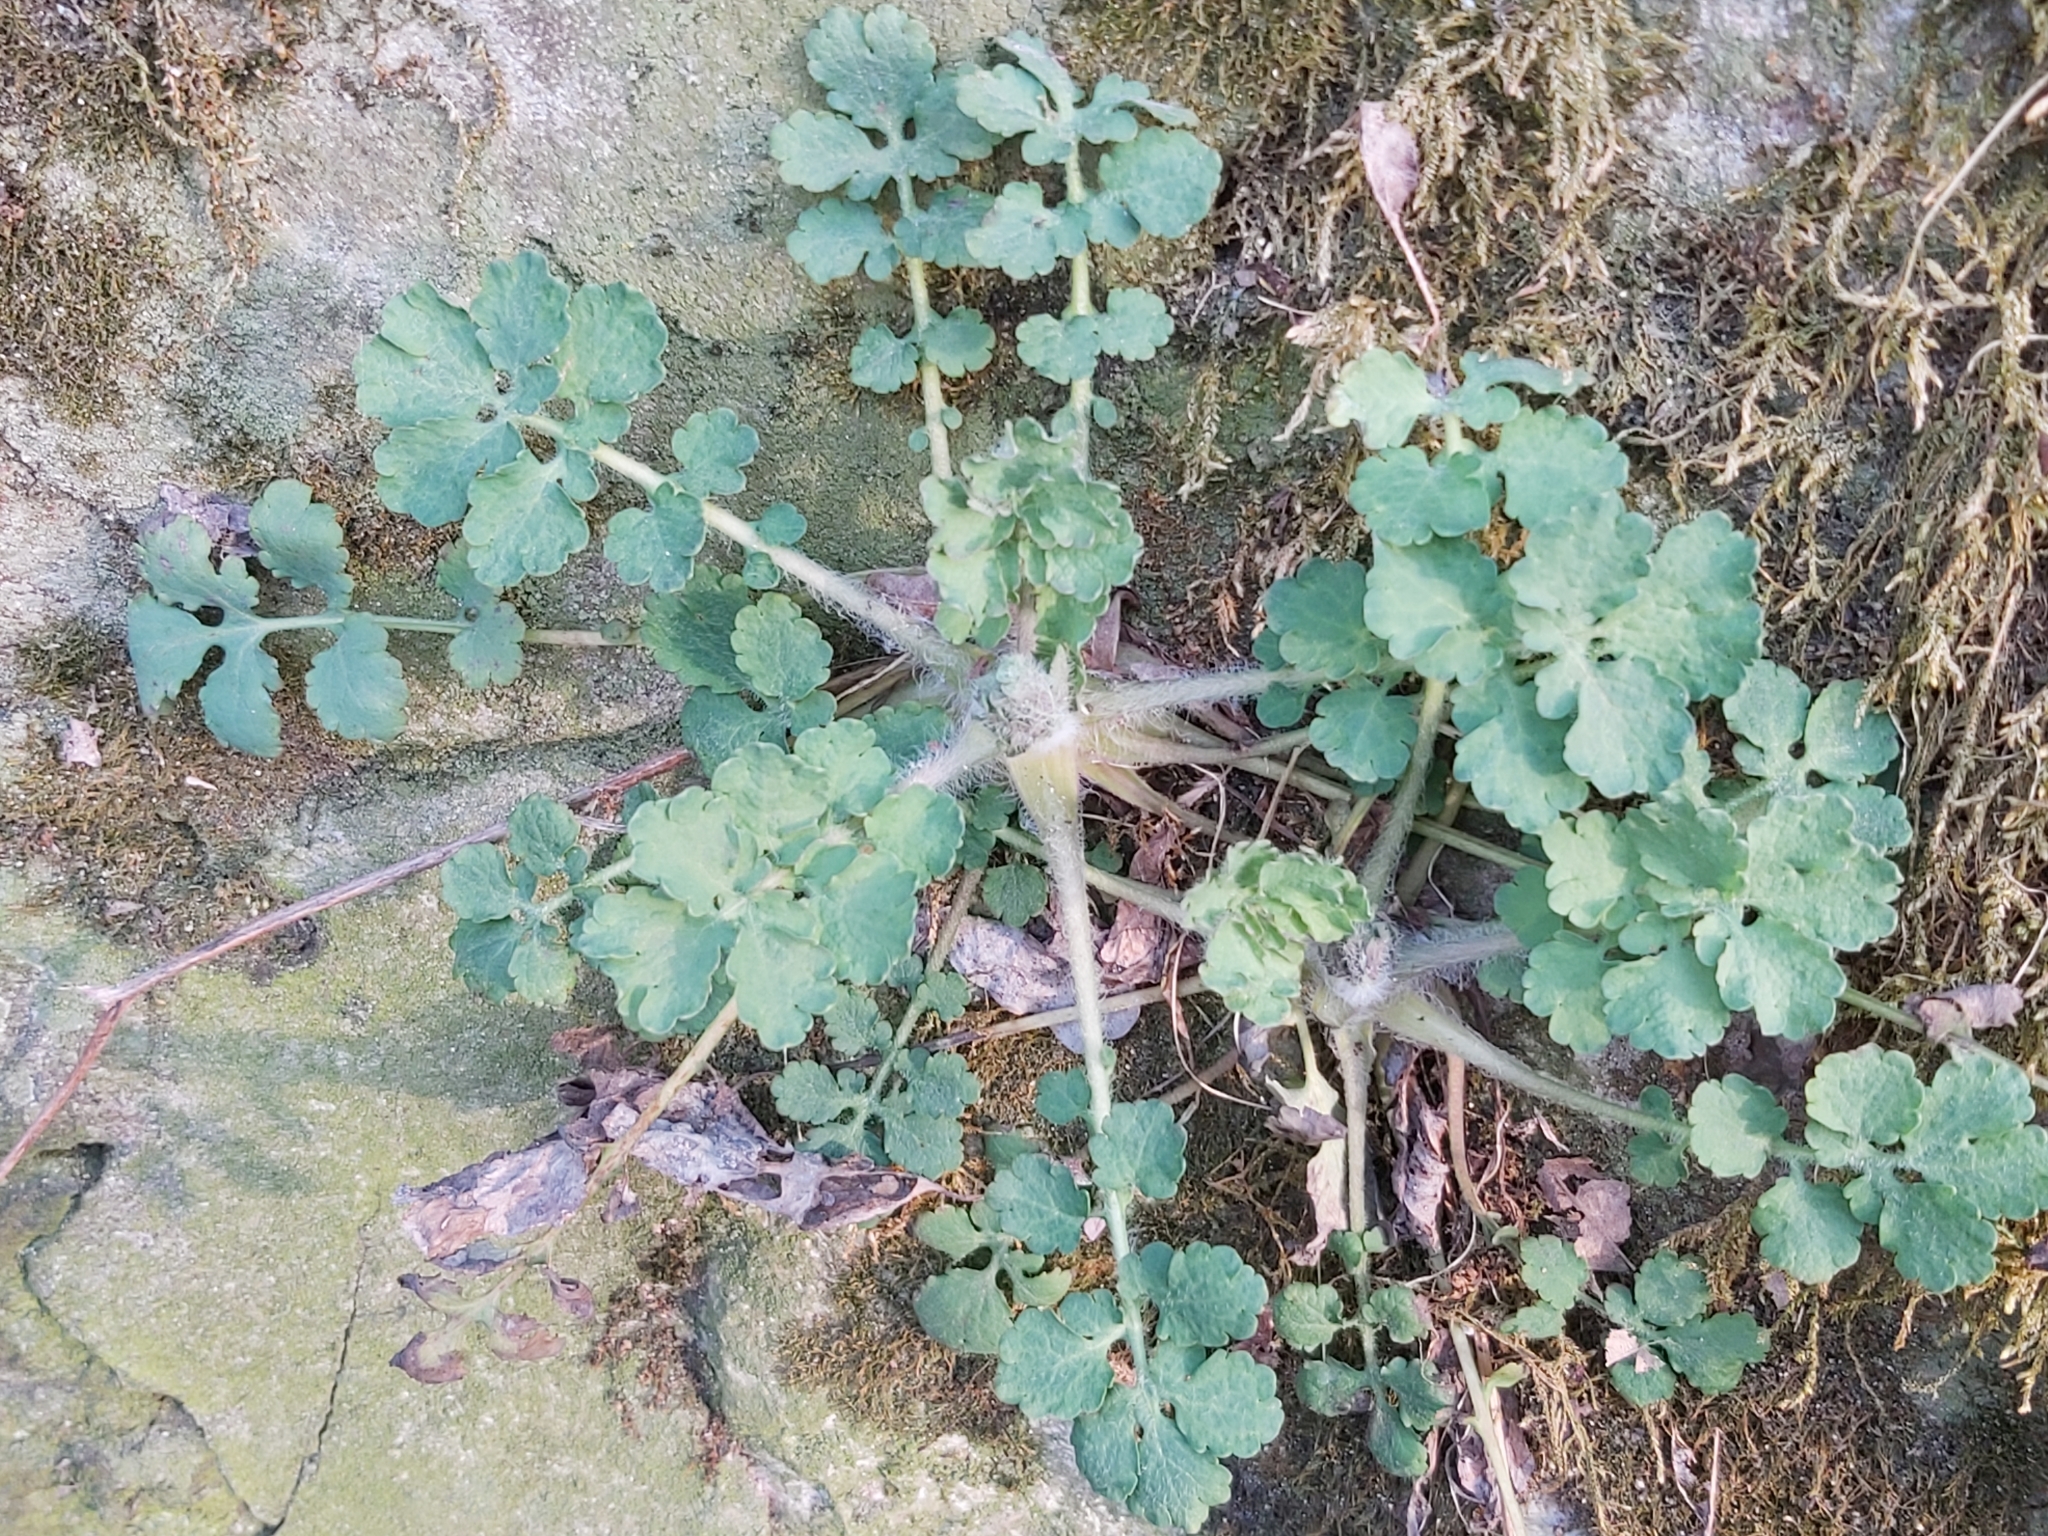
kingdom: Plantae
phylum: Tracheophyta
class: Magnoliopsida
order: Ranunculales
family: Papaveraceae
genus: Chelidonium
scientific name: Chelidonium majus
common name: Greater celandine
